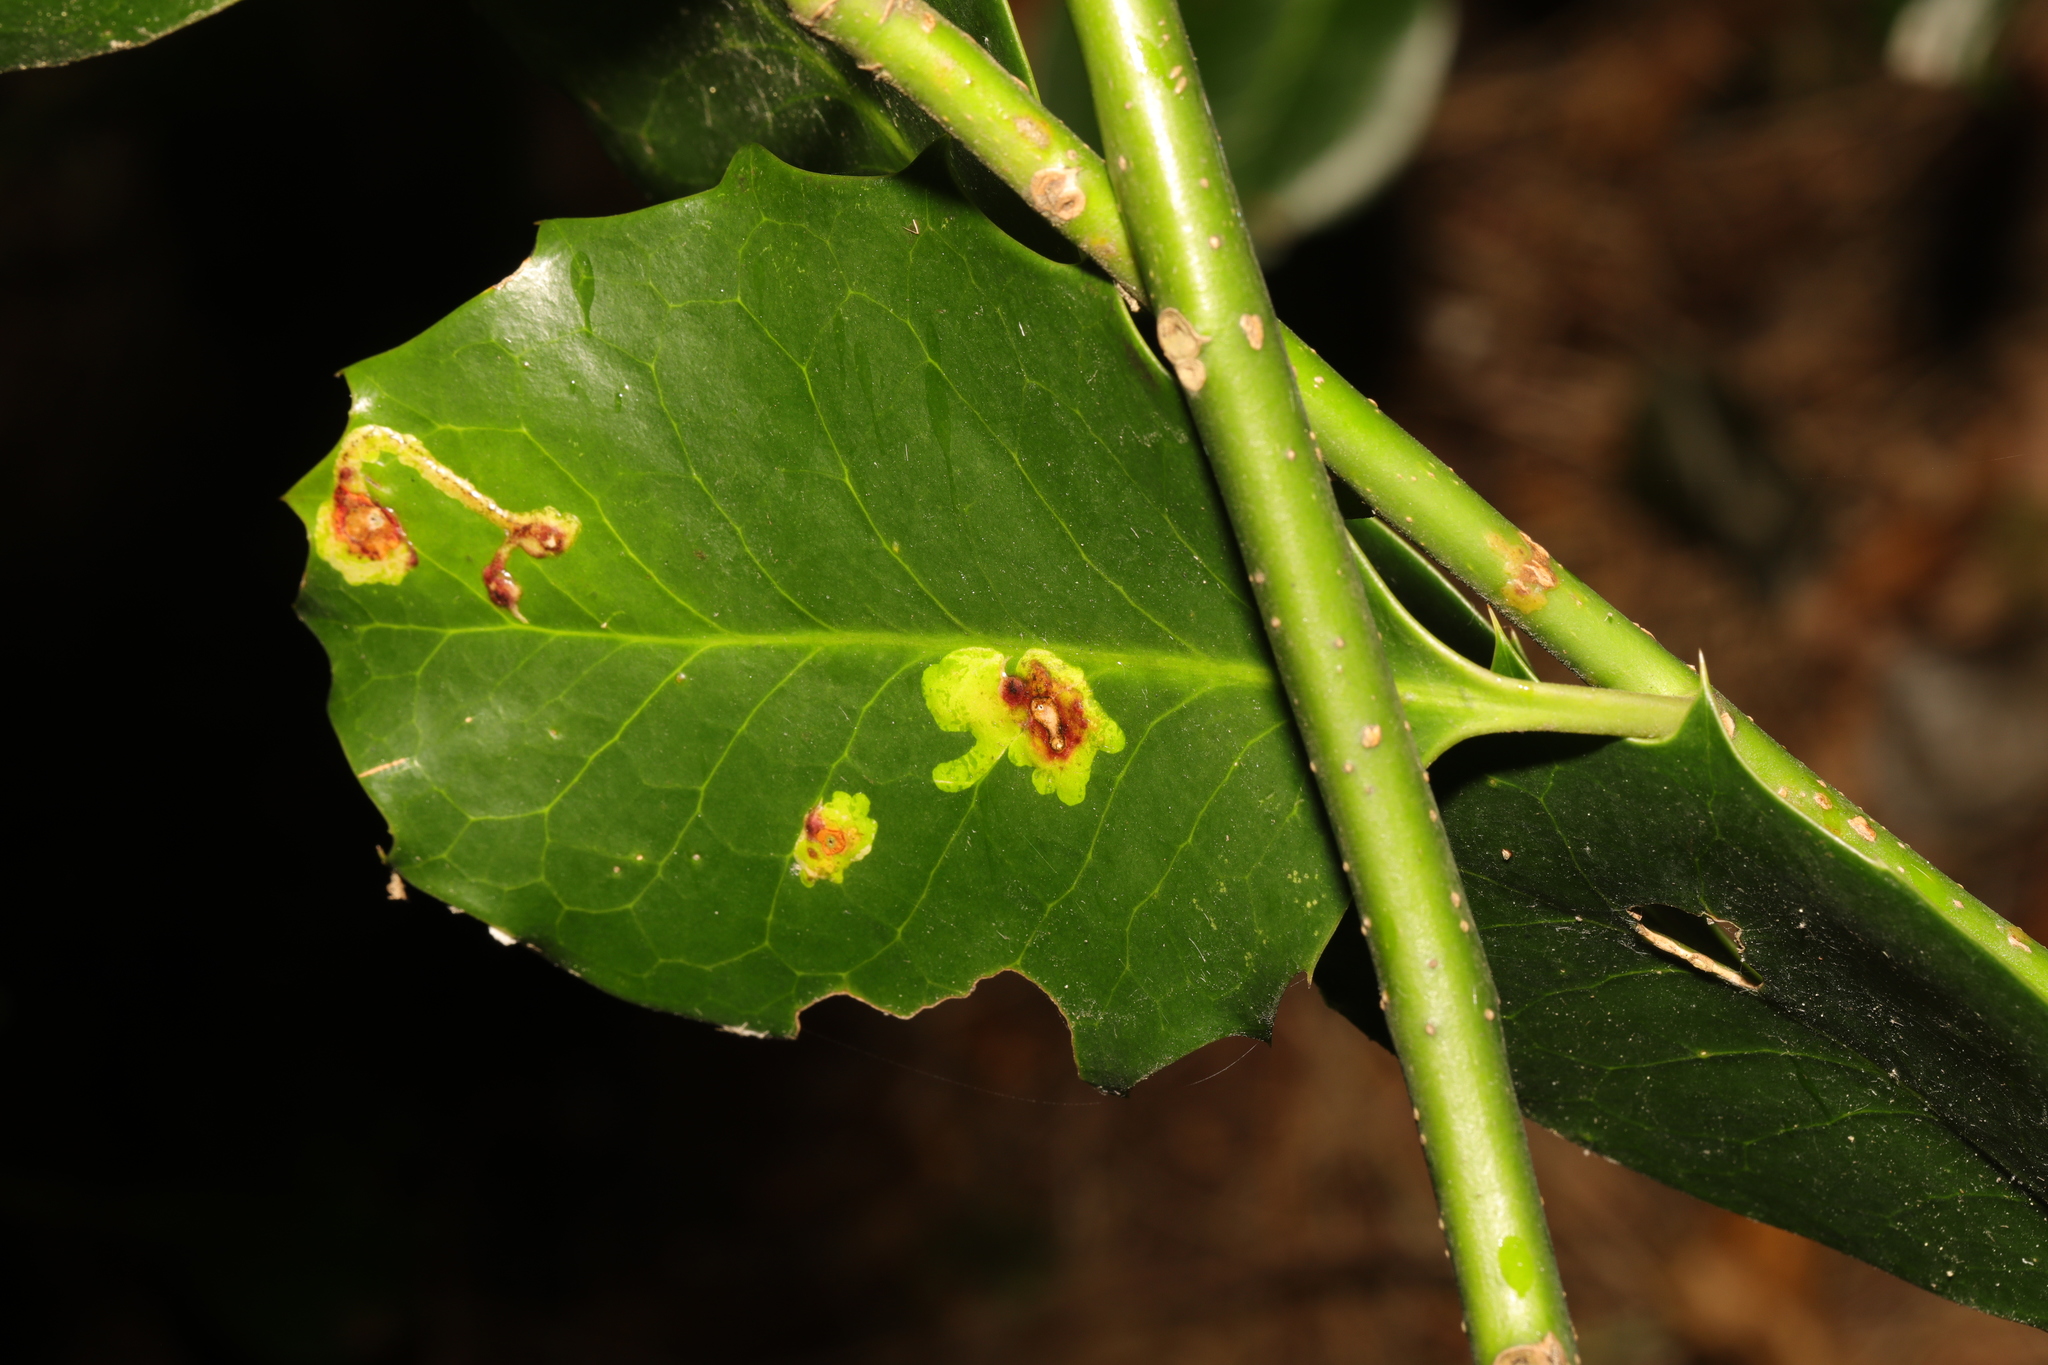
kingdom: Plantae
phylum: Tracheophyta
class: Magnoliopsida
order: Aquifoliales
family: Aquifoliaceae
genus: Ilex
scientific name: Ilex altaclerensis
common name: Highclere holly
